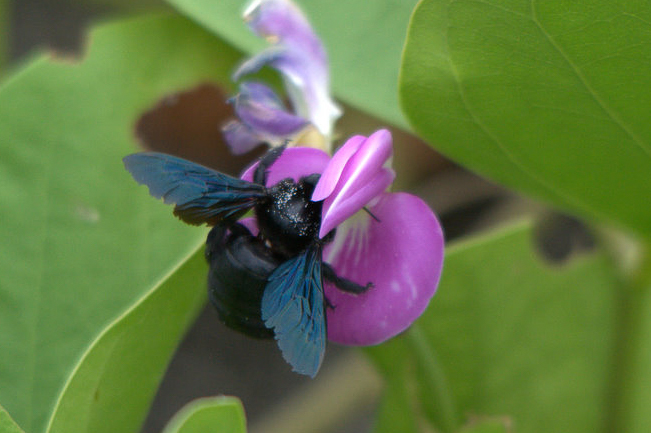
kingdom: Animalia
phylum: Arthropoda
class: Insecta
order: Hymenoptera
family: Apidae
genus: Xylocopa
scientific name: Xylocopa darwini
